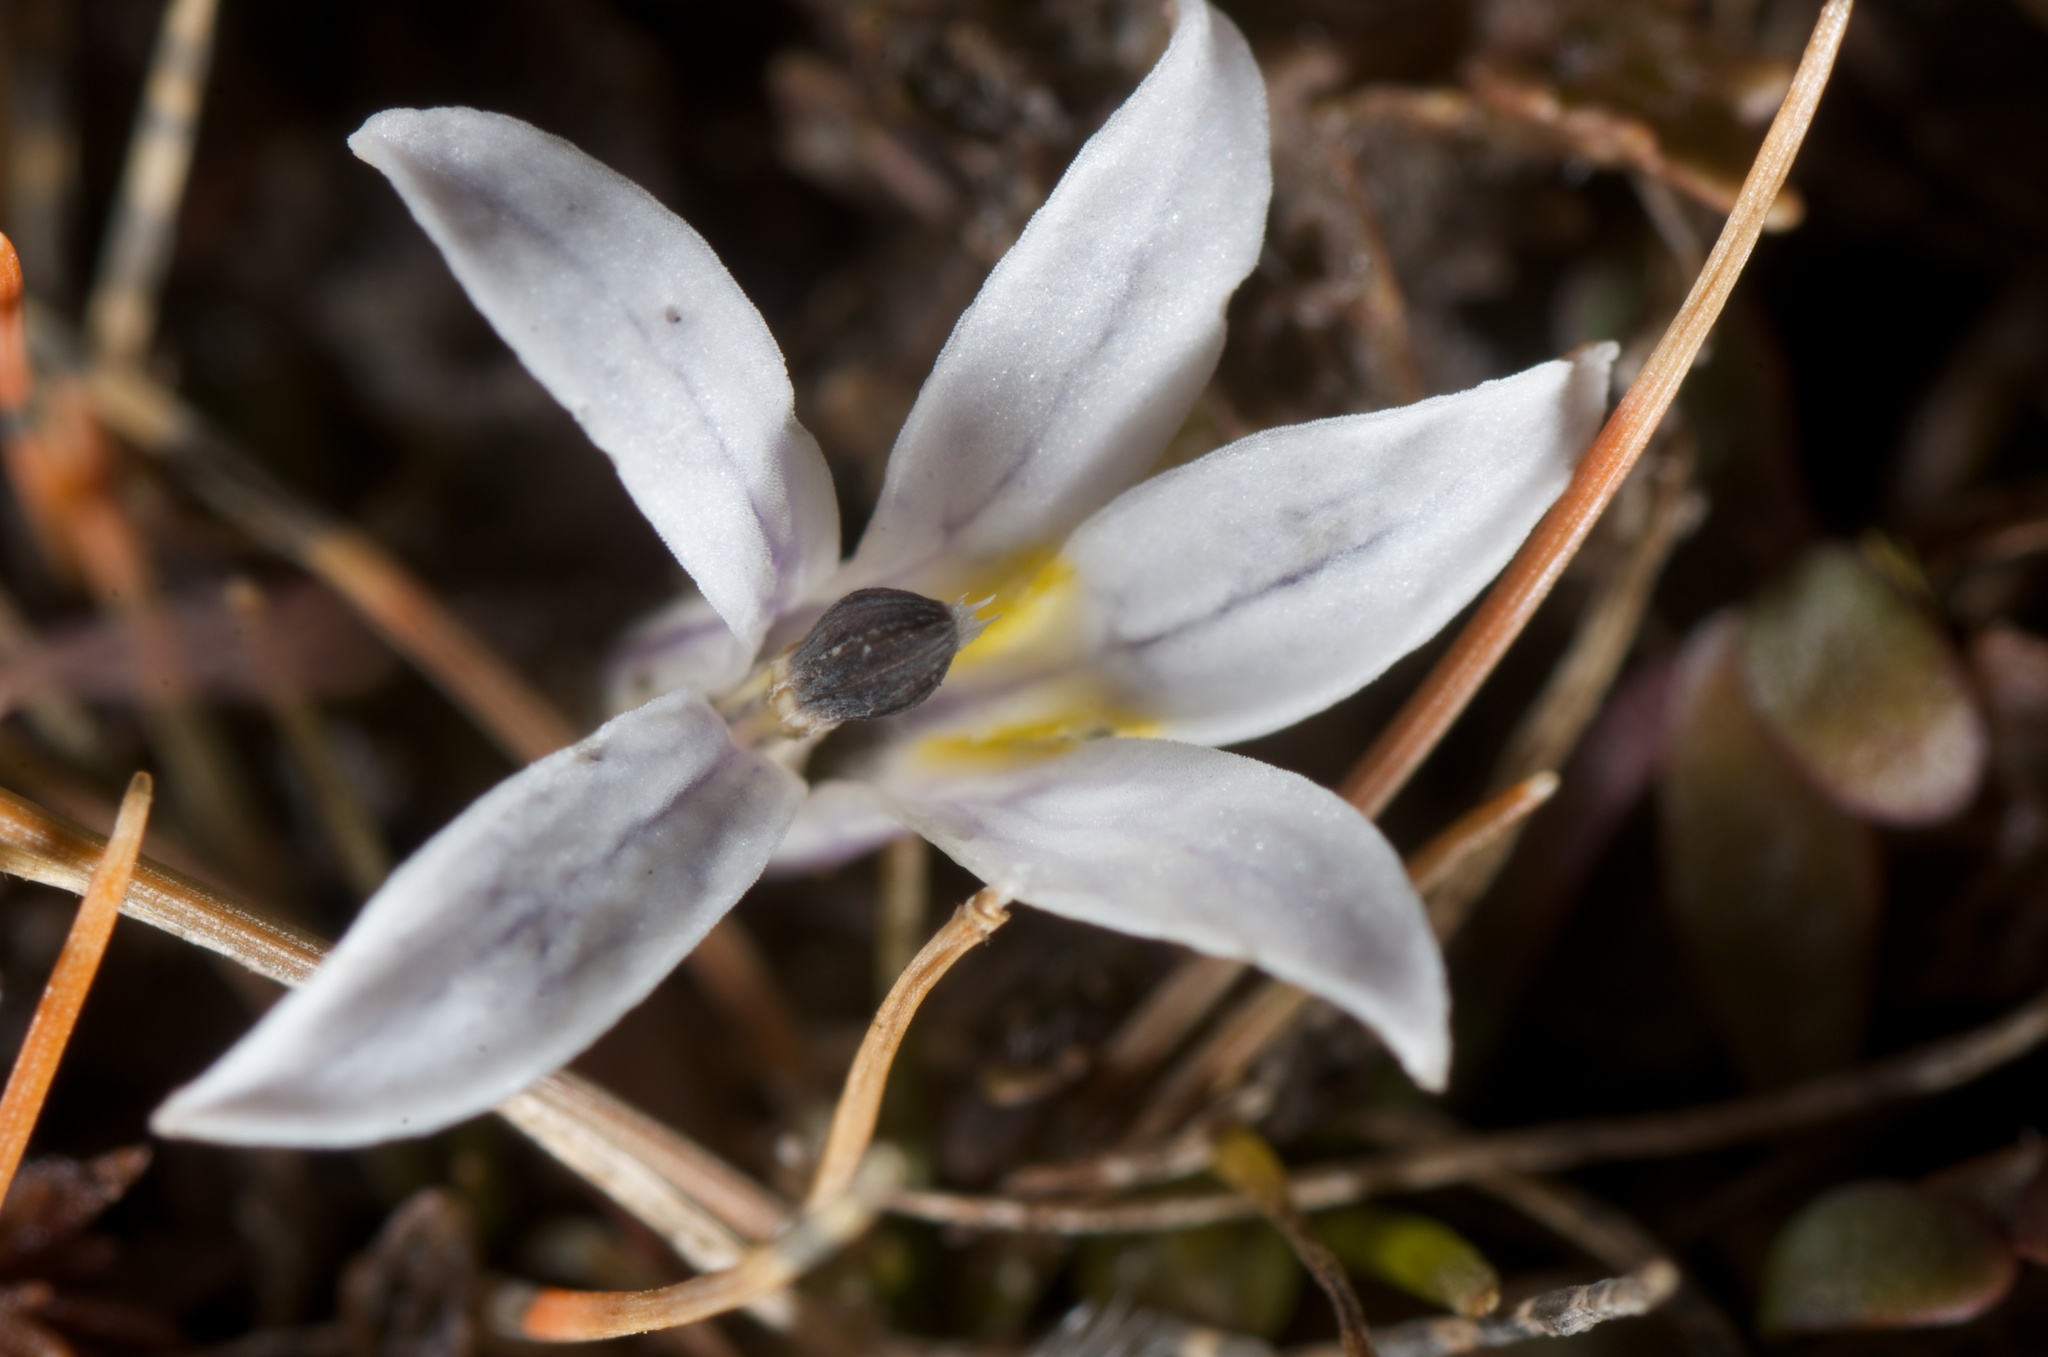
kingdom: Plantae
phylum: Tracheophyta
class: Magnoliopsida
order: Asterales
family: Campanulaceae
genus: Lobelia
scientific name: Lobelia perpusilla
